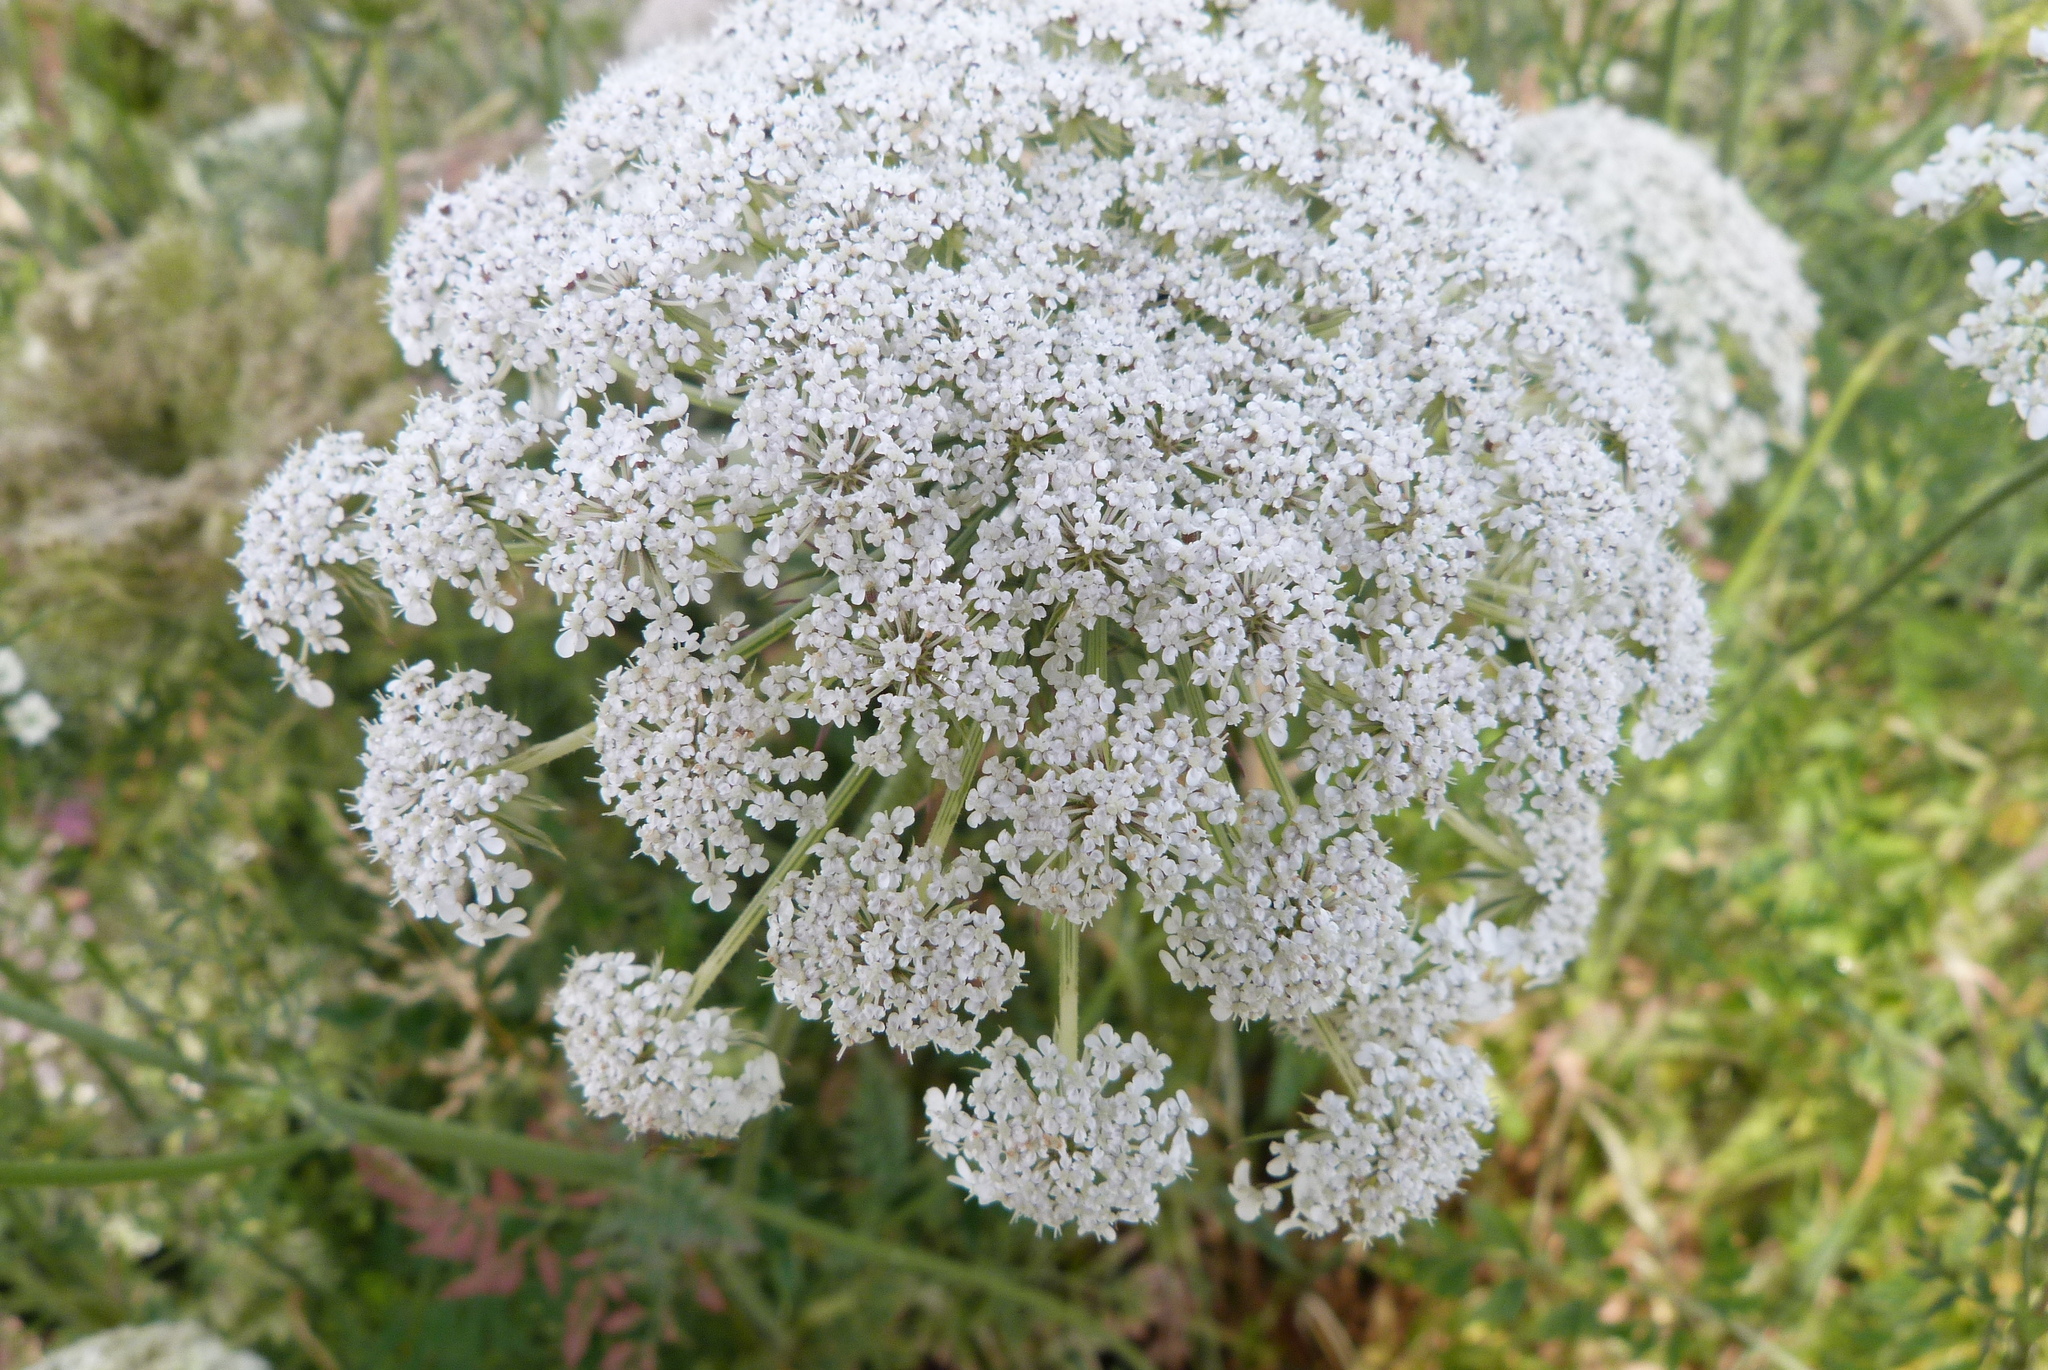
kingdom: Plantae
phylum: Tracheophyta
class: Magnoliopsida
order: Apiales
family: Apiaceae
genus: Daucus
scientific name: Daucus carota
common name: Wild carrot
